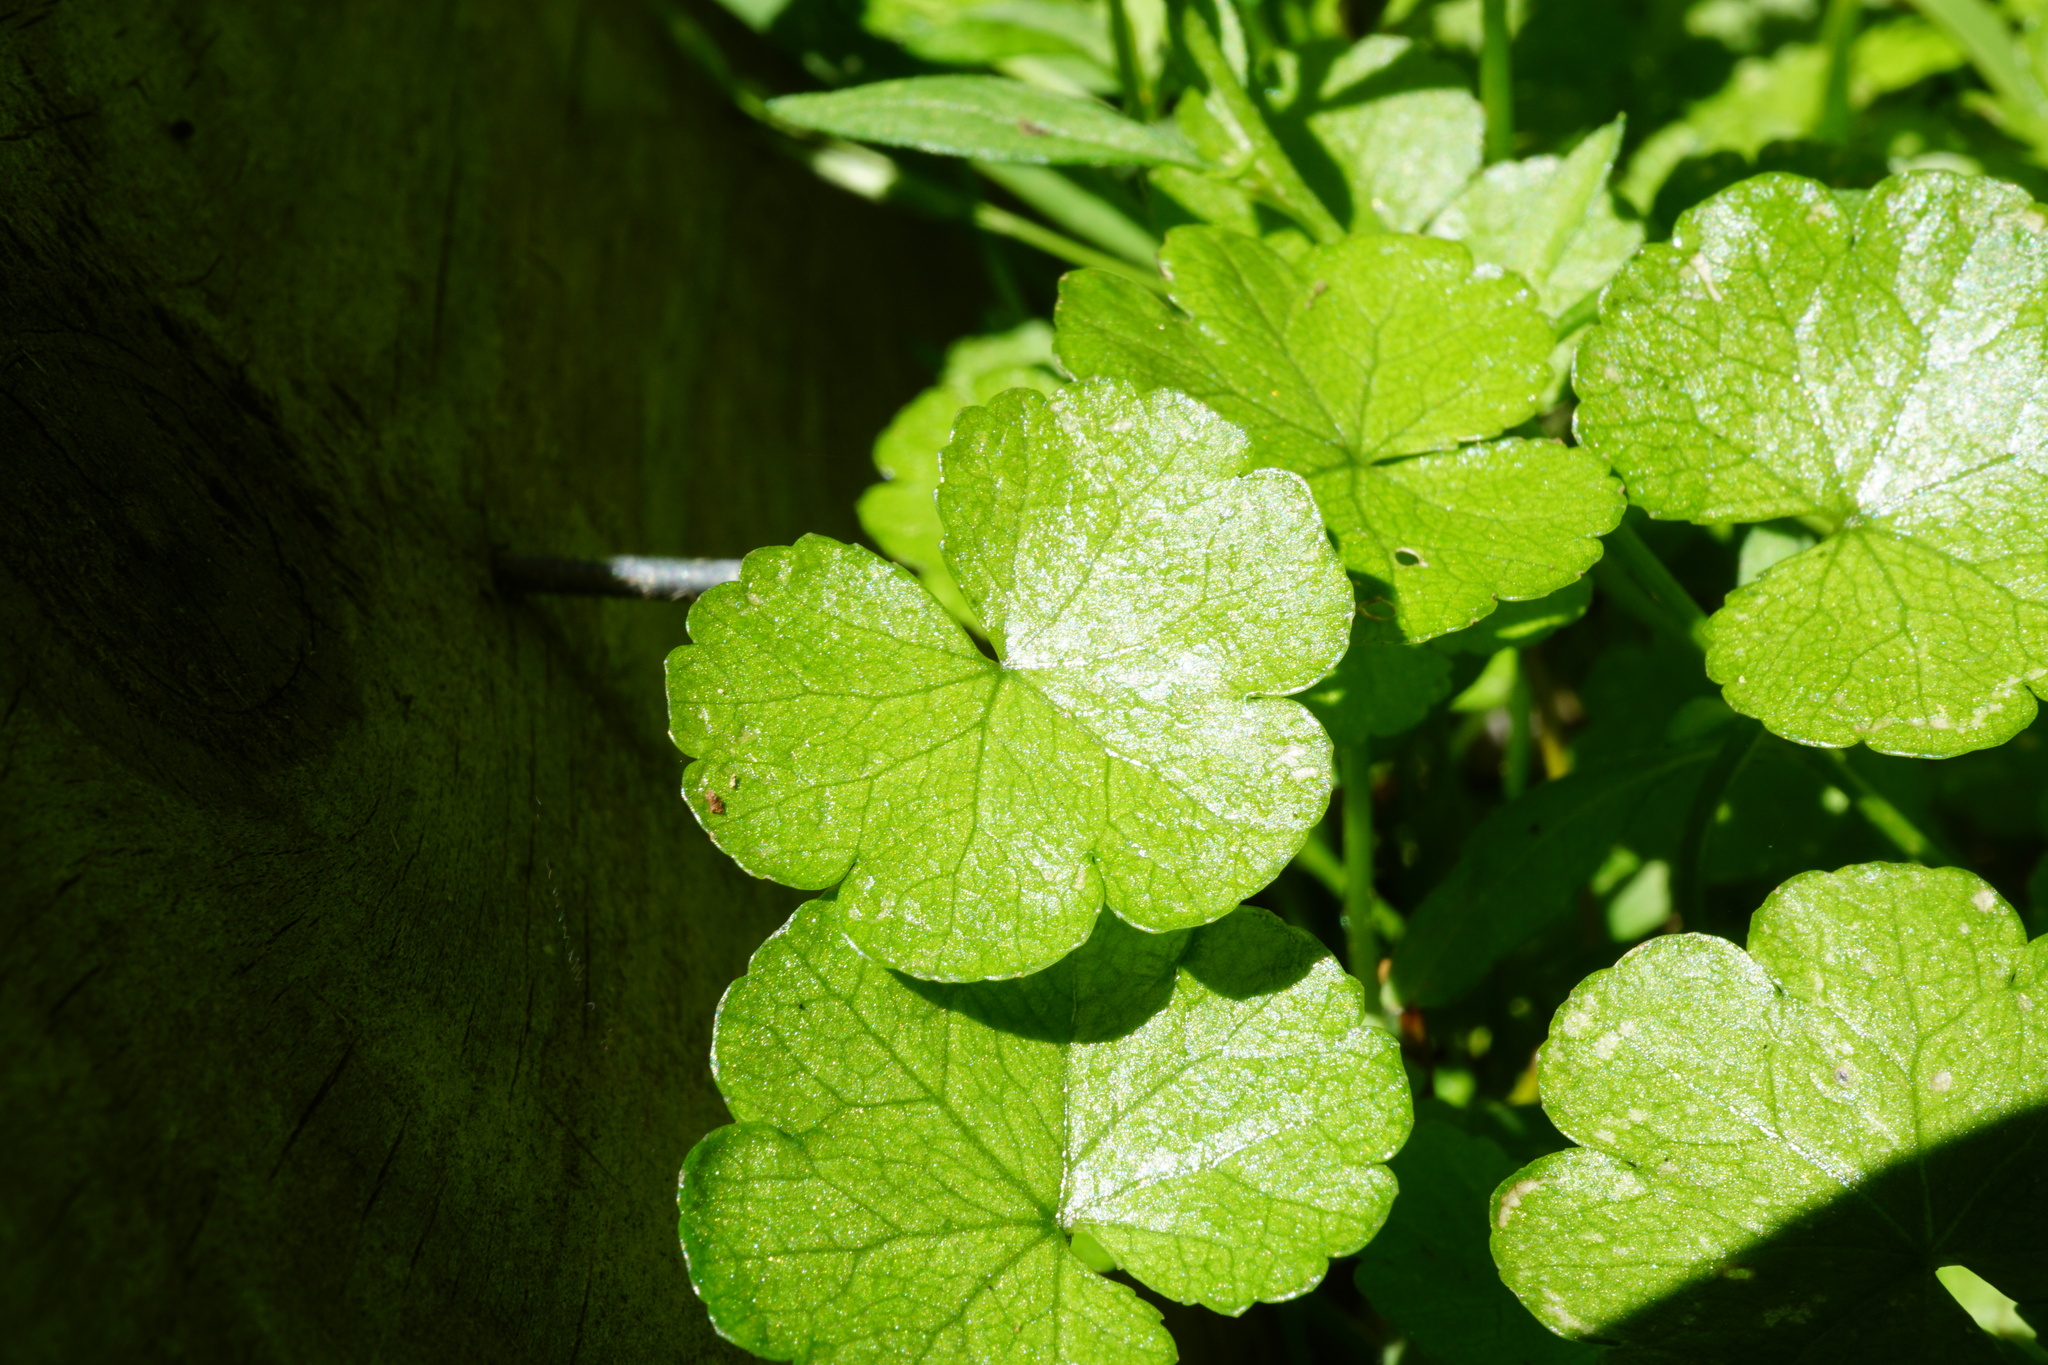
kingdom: Plantae
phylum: Tracheophyta
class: Magnoliopsida
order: Apiales
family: Araliaceae
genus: Hydrocotyle
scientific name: Hydrocotyle heteromeria
